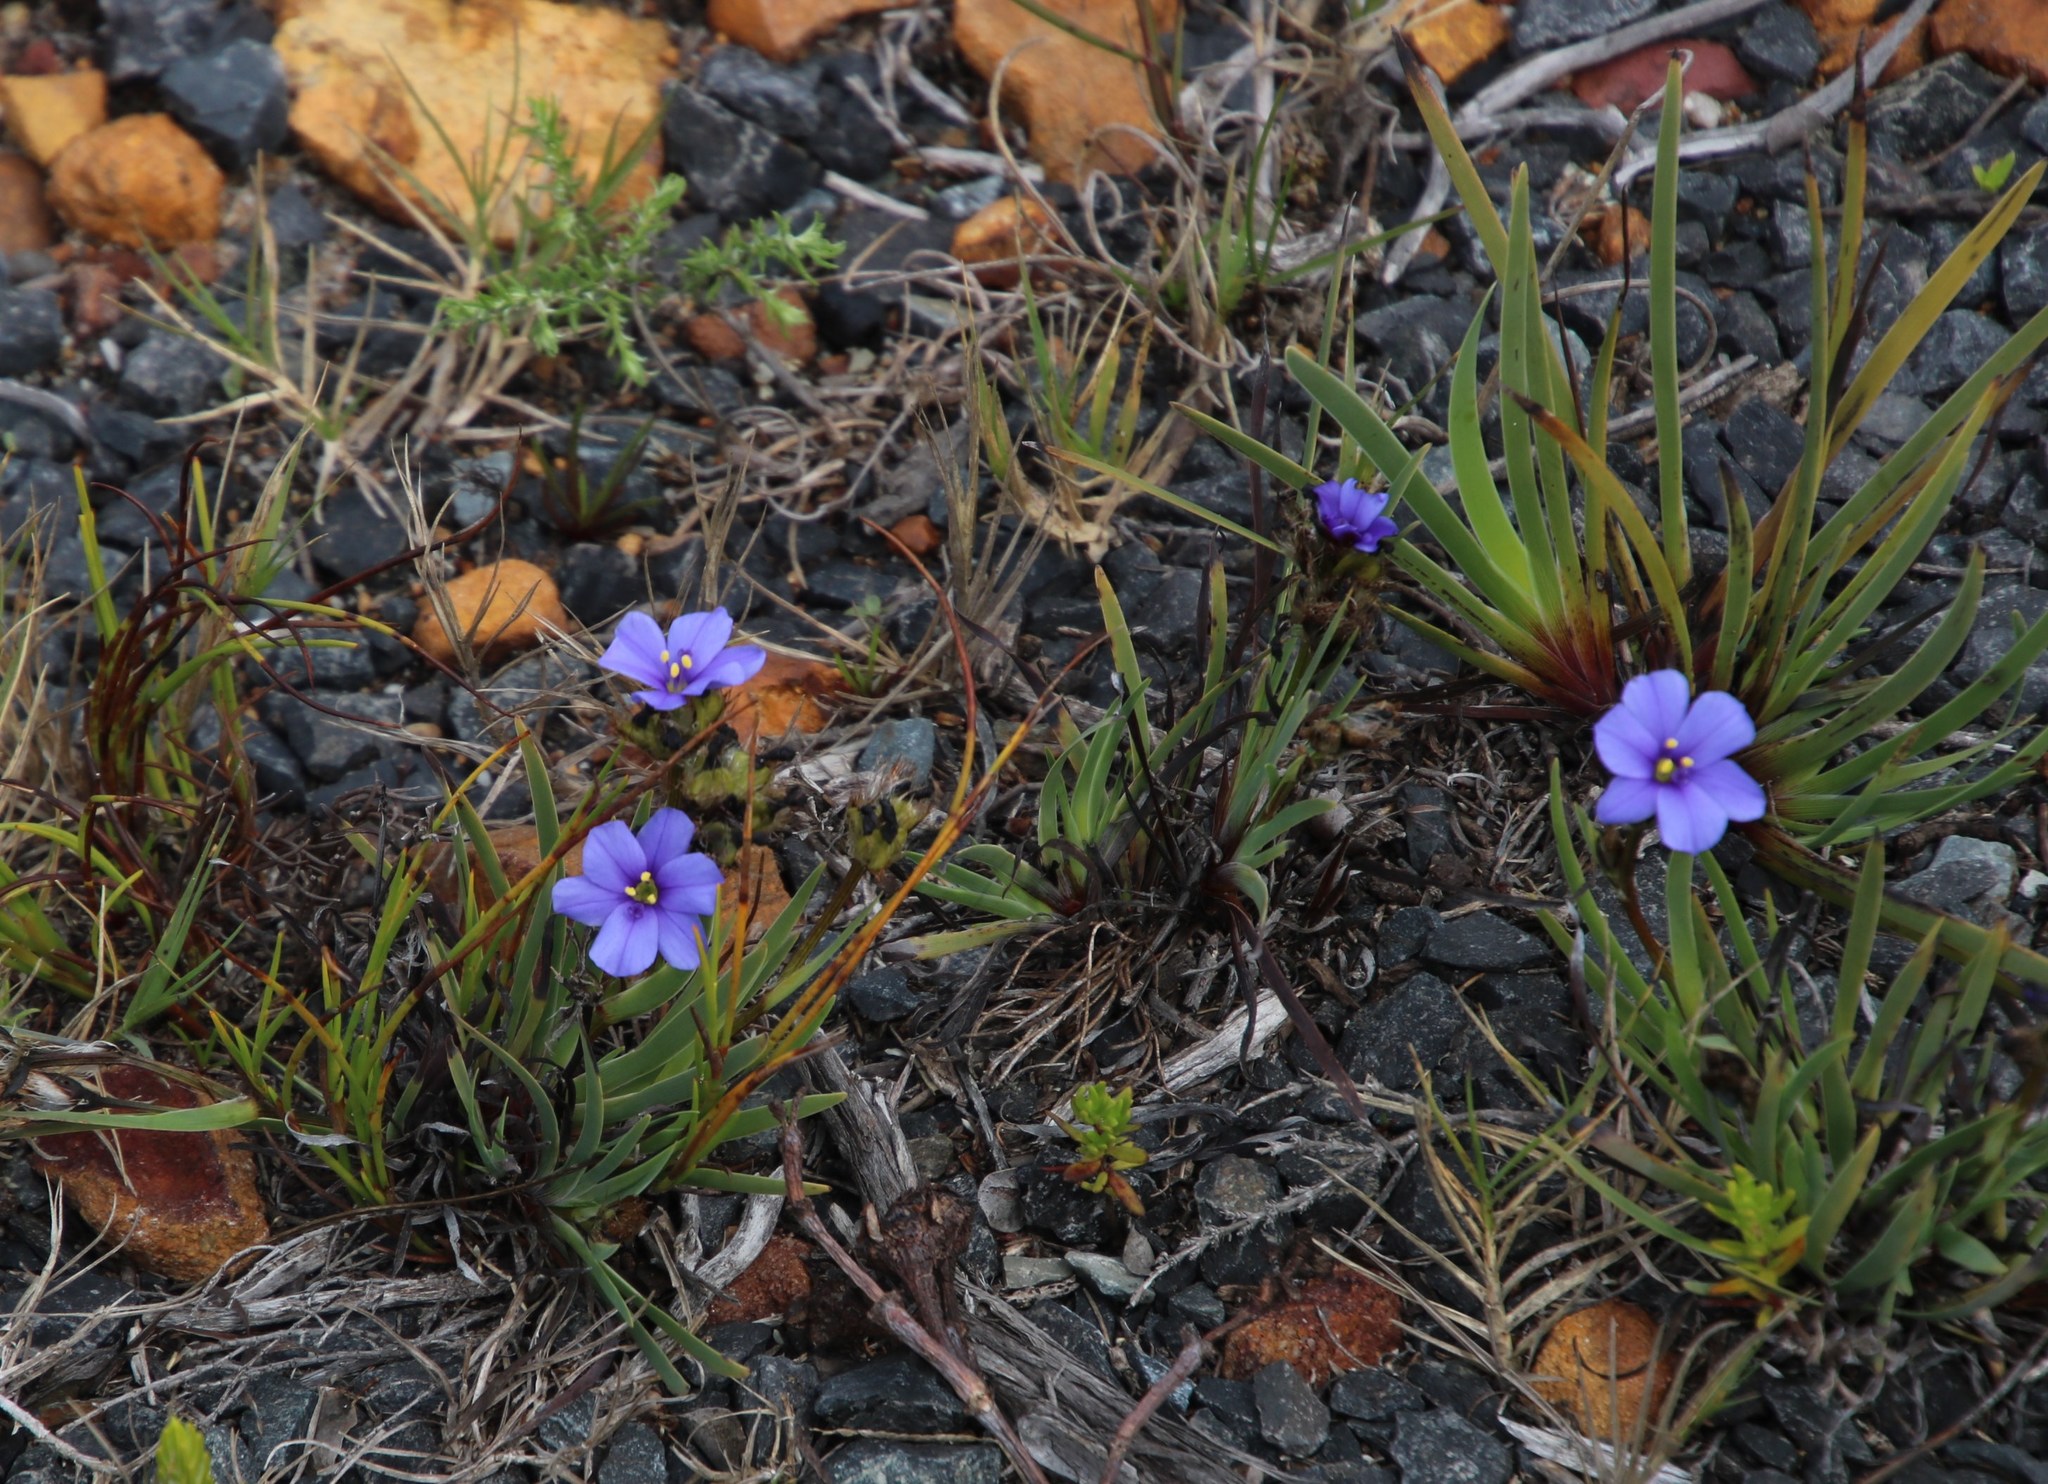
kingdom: Plantae
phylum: Tracheophyta
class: Liliopsida
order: Asparagales
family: Iridaceae
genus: Aristea
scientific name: Aristea africana
